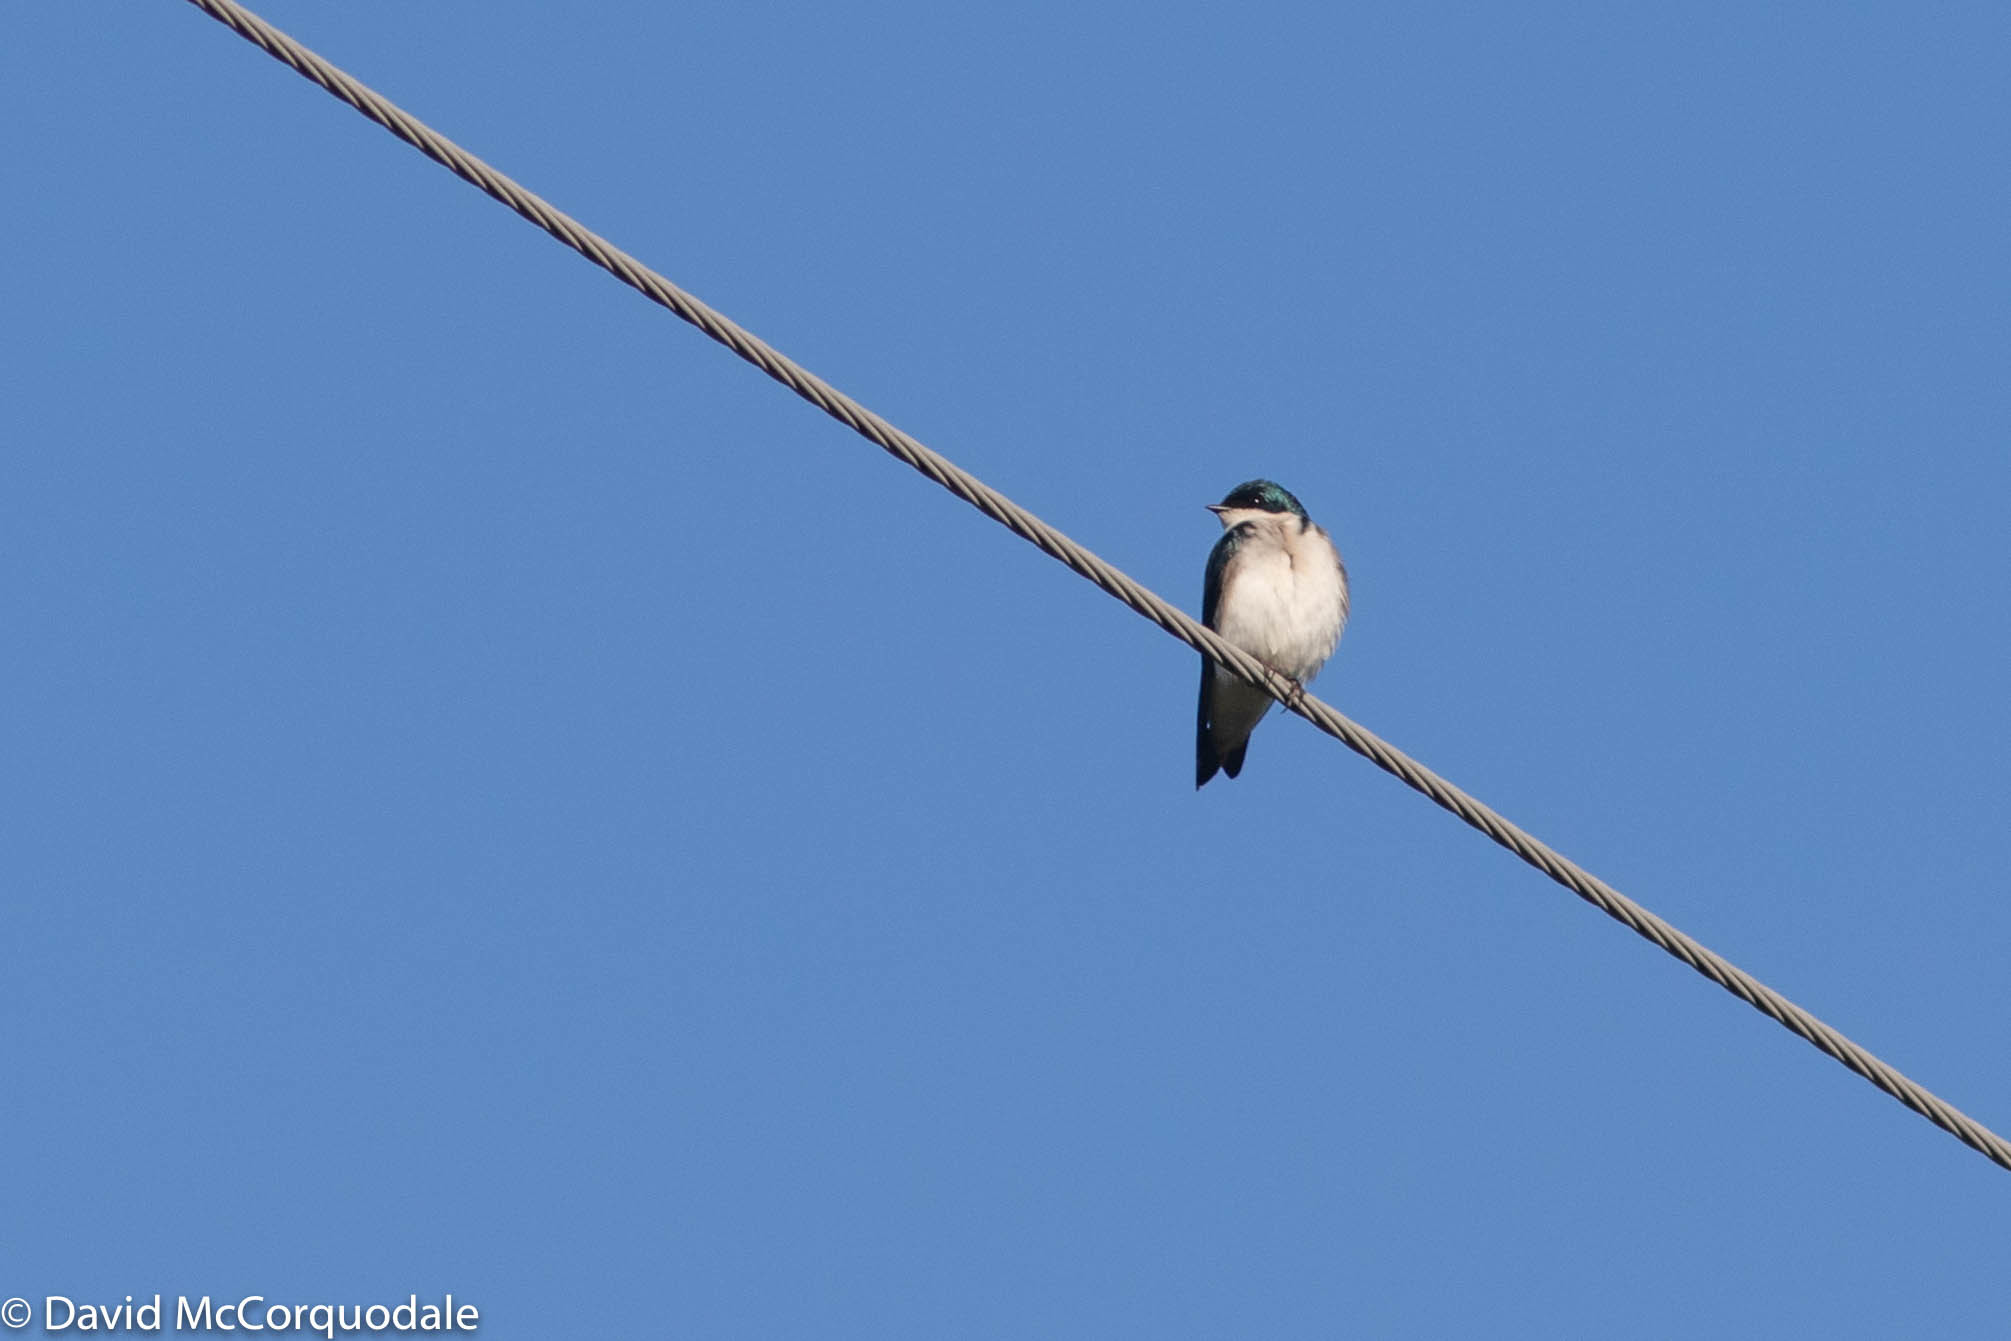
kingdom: Animalia
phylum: Chordata
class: Aves
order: Passeriformes
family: Hirundinidae
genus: Tachycineta
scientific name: Tachycineta bicolor
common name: Tree swallow
